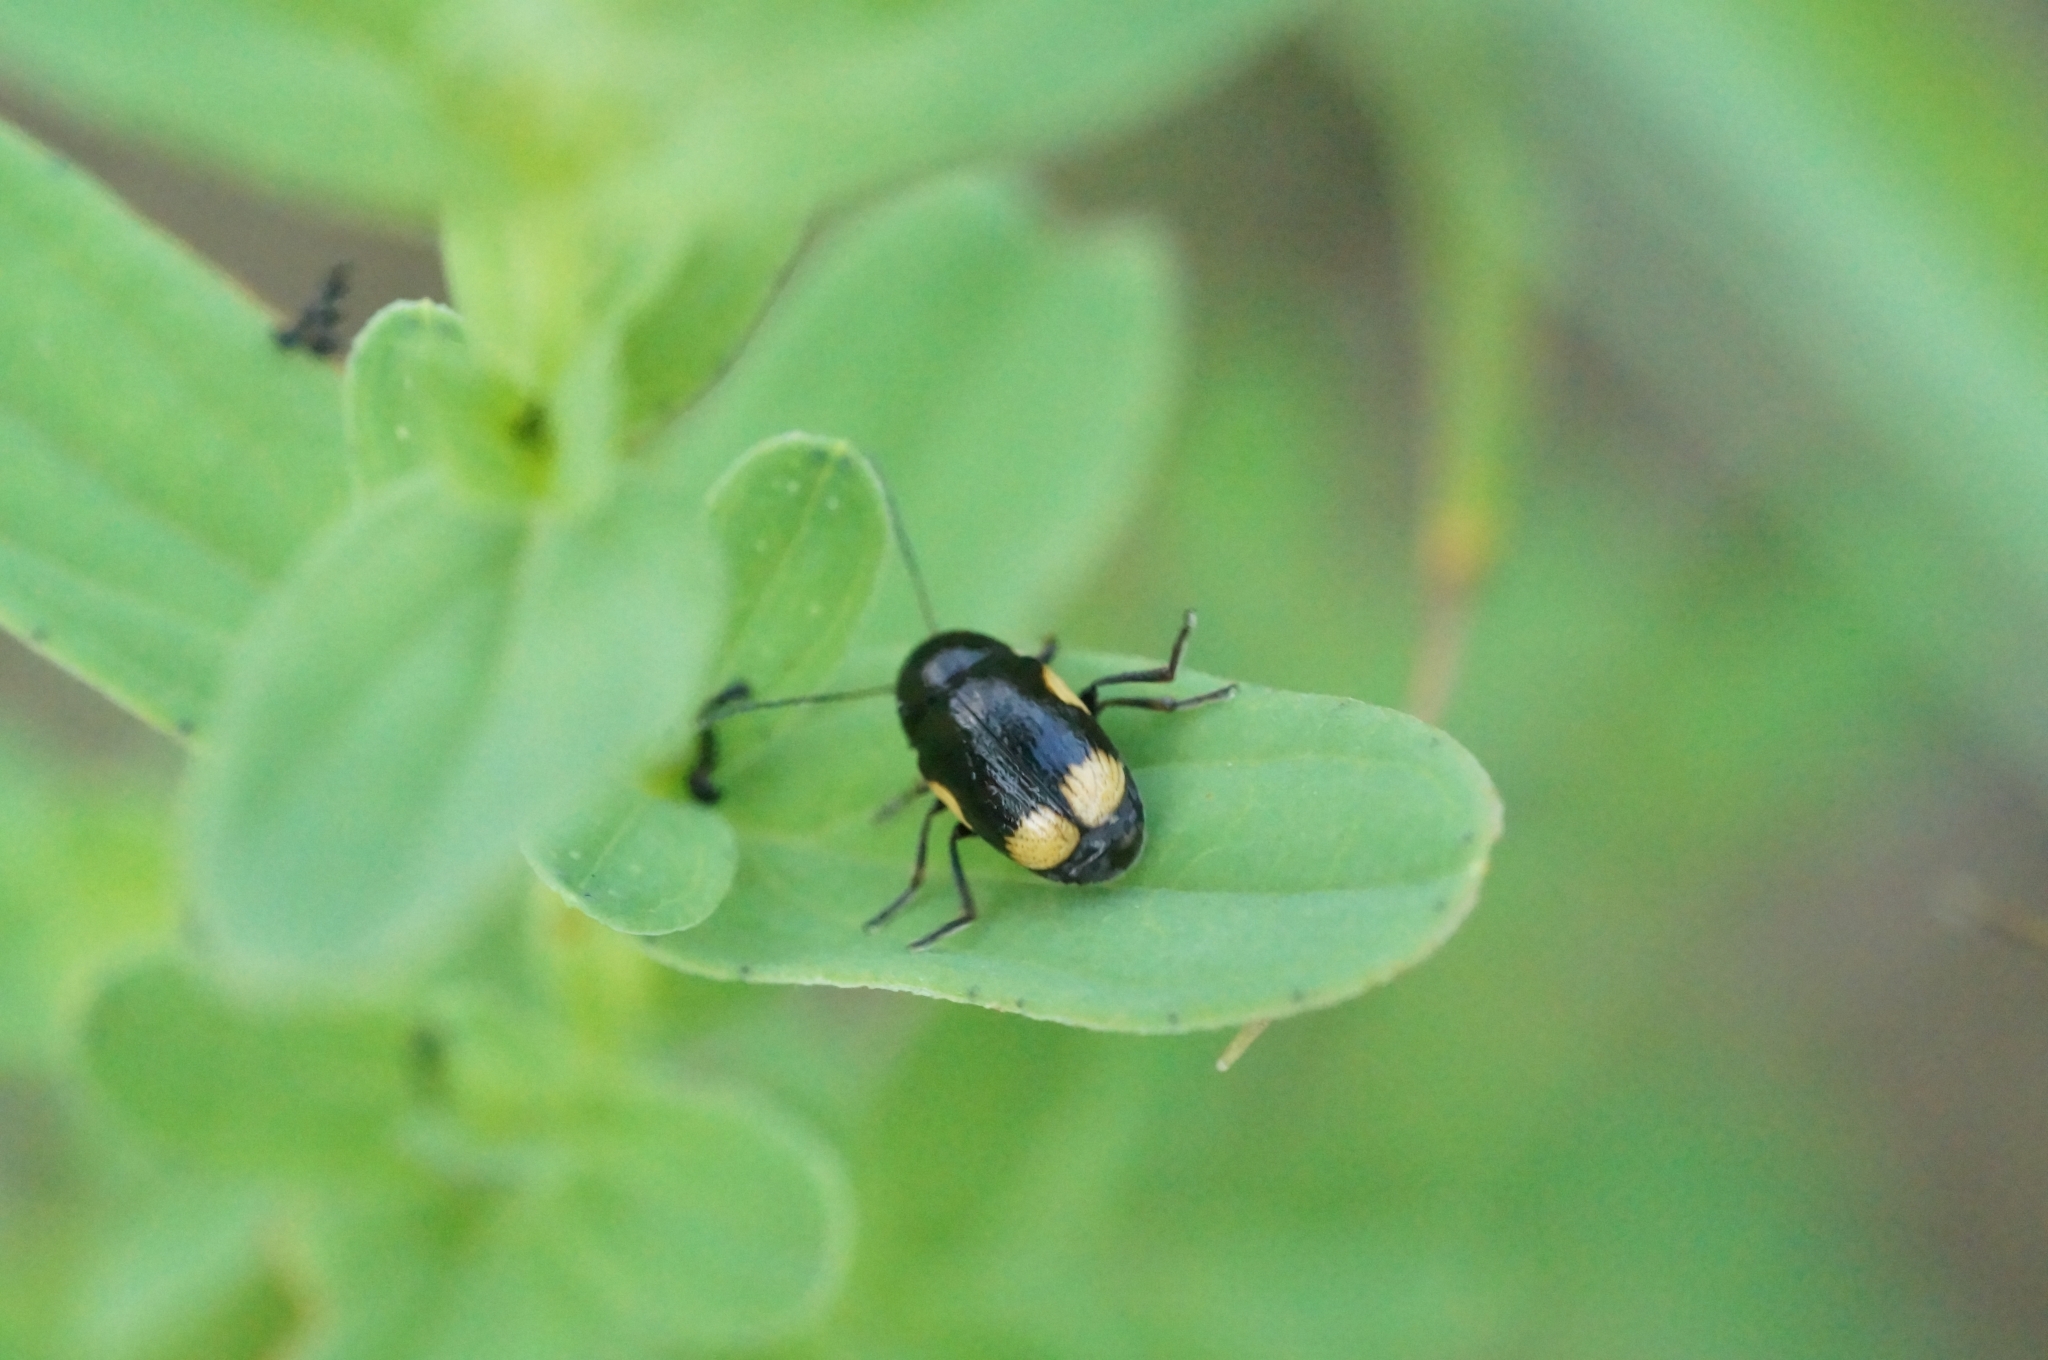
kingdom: Animalia
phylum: Arthropoda
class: Insecta
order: Coleoptera
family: Chrysomelidae
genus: Cryptocephalus
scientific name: Cryptocephalus moraei
